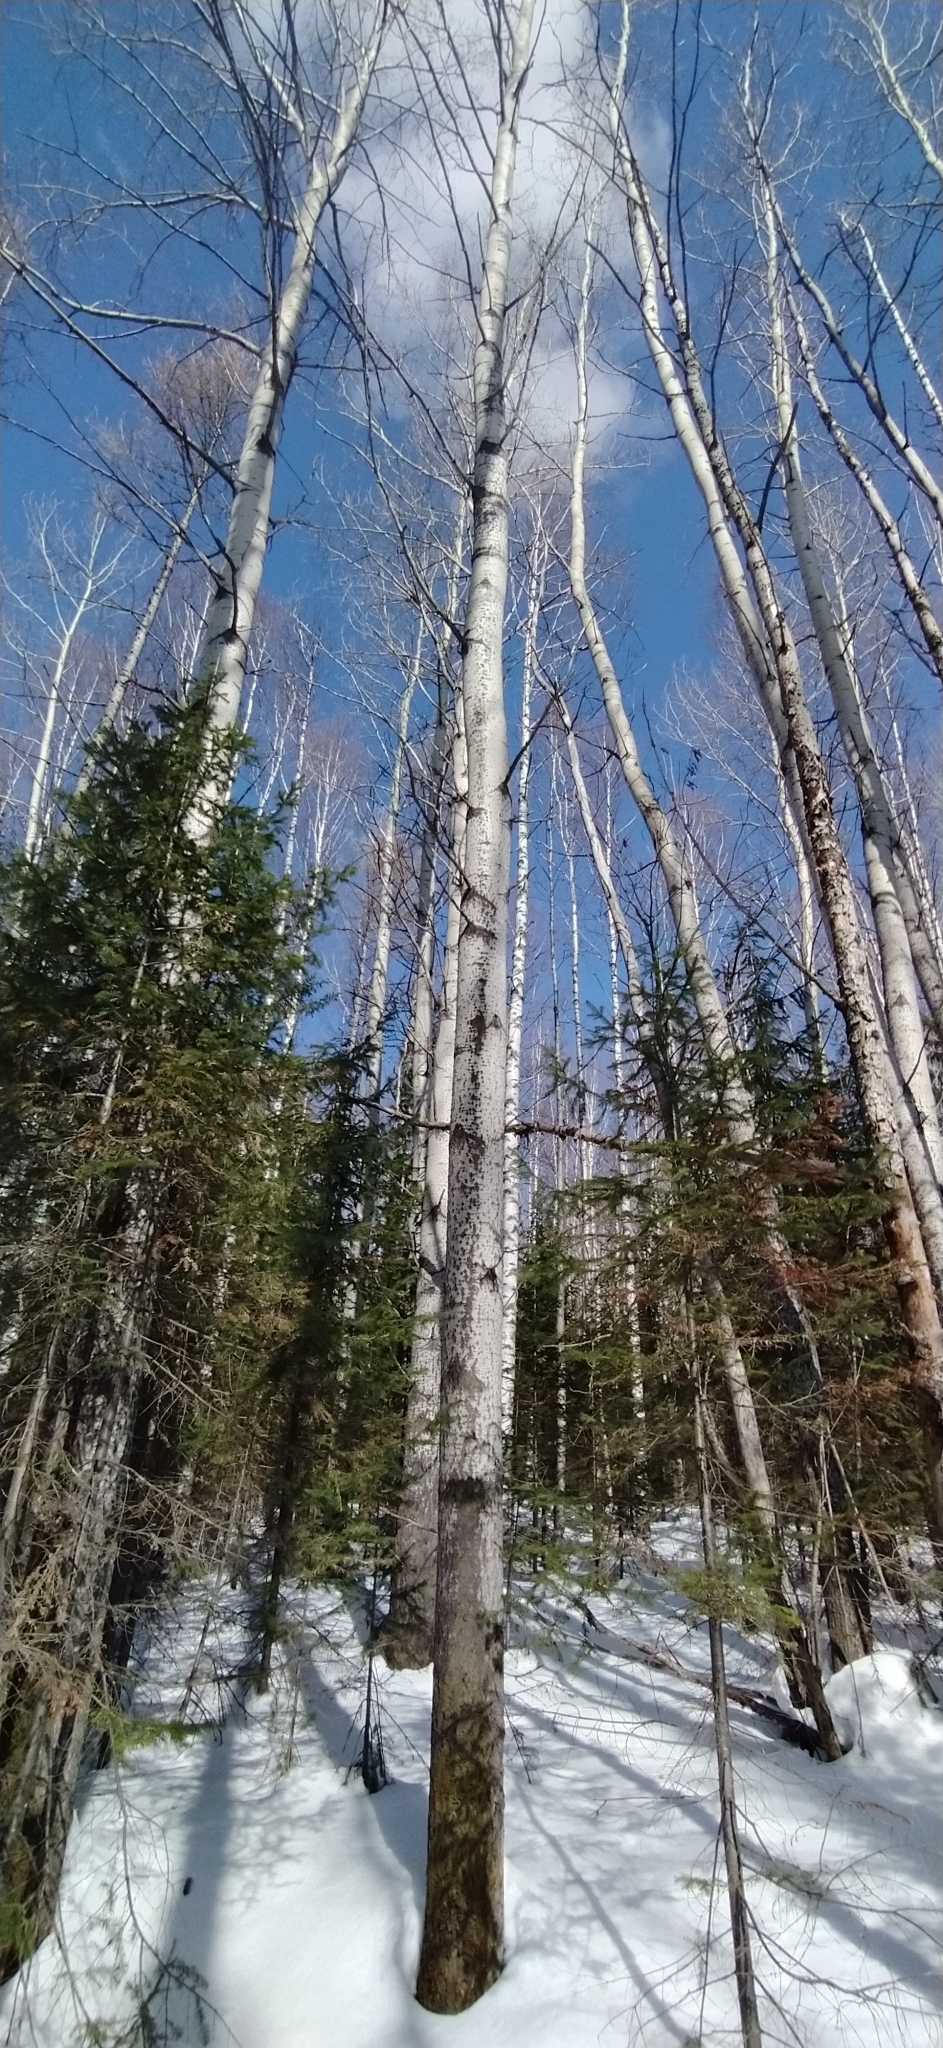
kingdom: Plantae
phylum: Tracheophyta
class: Magnoliopsida
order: Malpighiales
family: Salicaceae
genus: Populus
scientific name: Populus tremula
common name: European aspen
